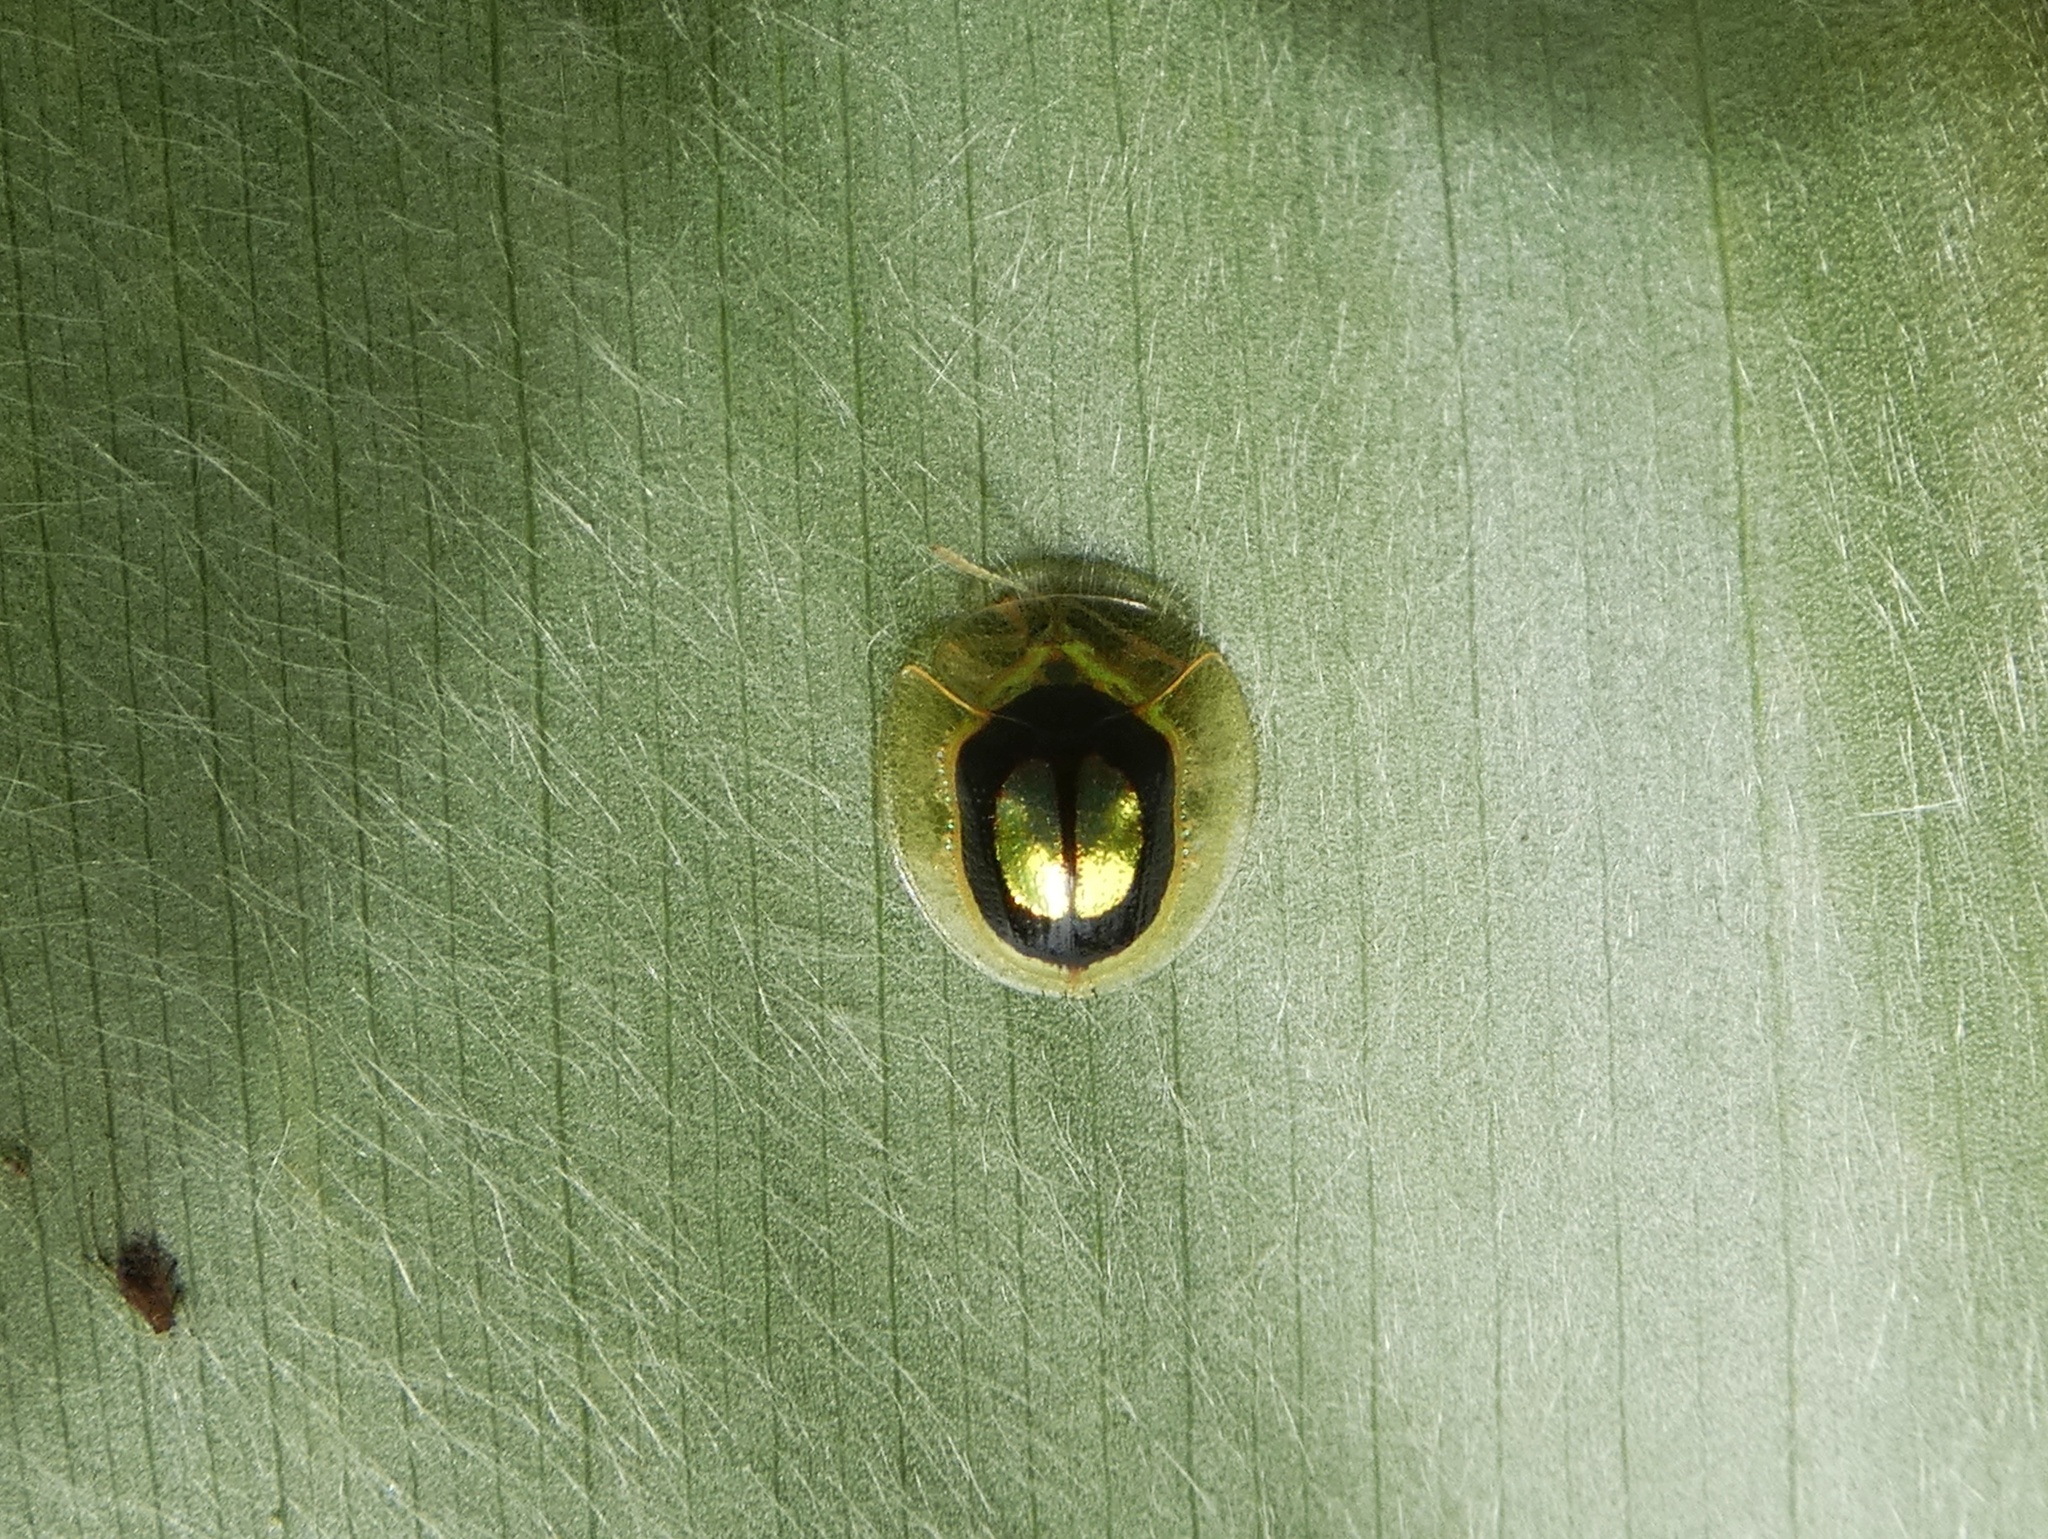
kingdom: Animalia
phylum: Arthropoda
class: Insecta
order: Coleoptera
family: Chrysomelidae
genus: Charidotella
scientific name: Charidotella ambita
